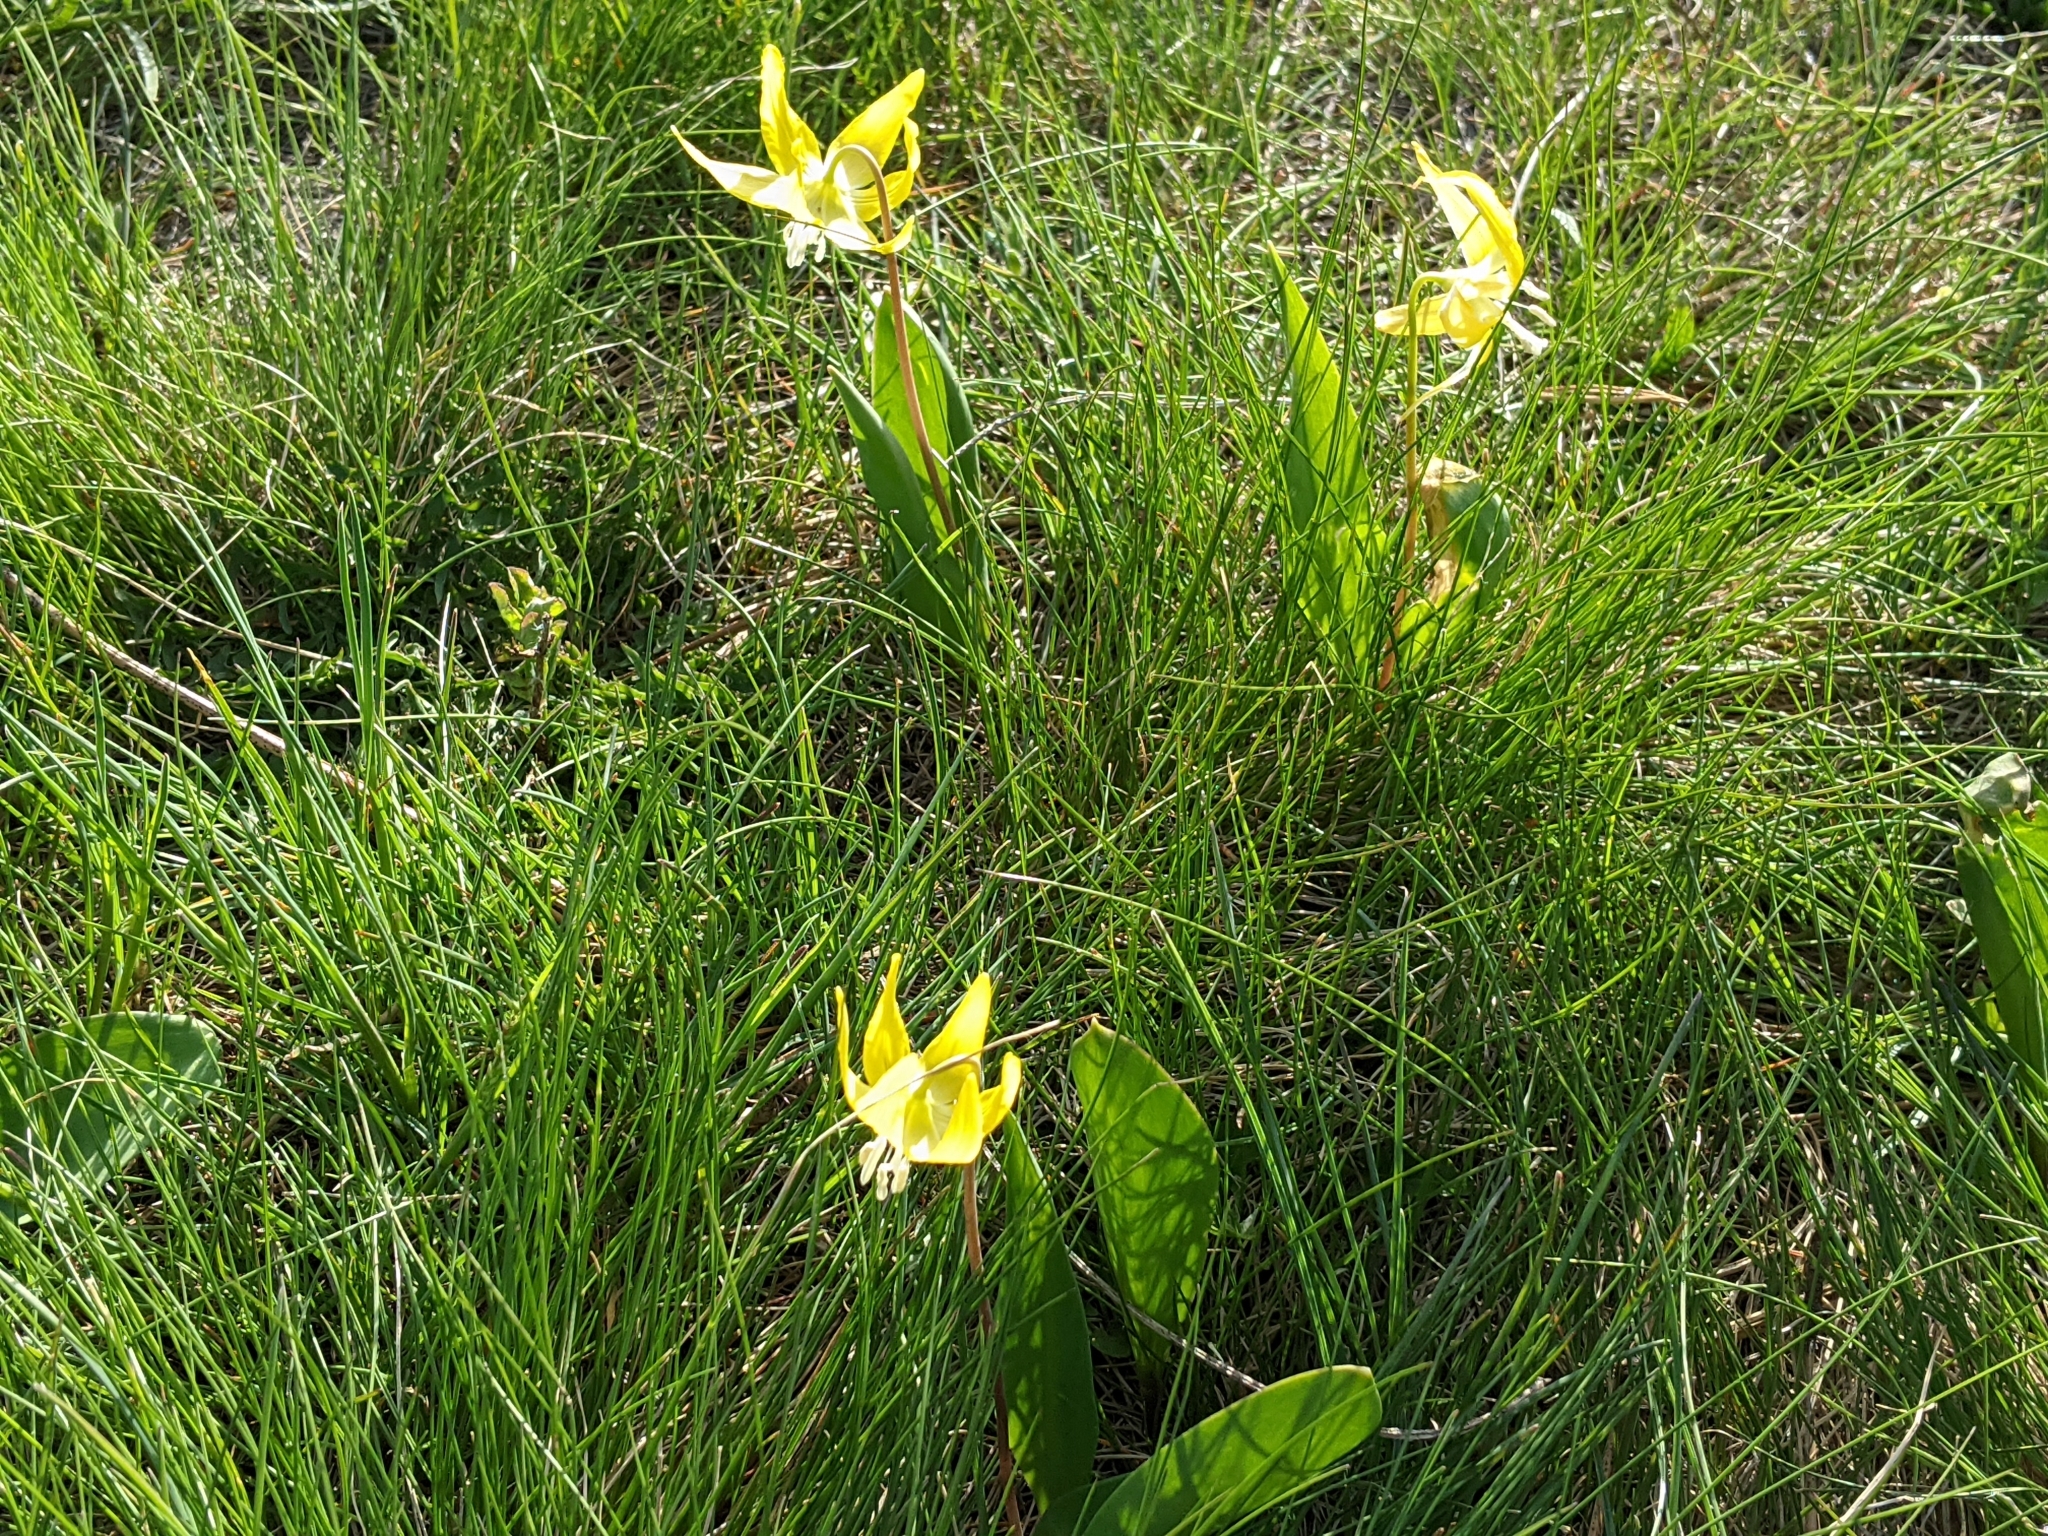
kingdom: Plantae
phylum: Tracheophyta
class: Liliopsida
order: Liliales
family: Liliaceae
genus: Erythronium
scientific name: Erythronium grandiflorum
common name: Avalanche-lily
